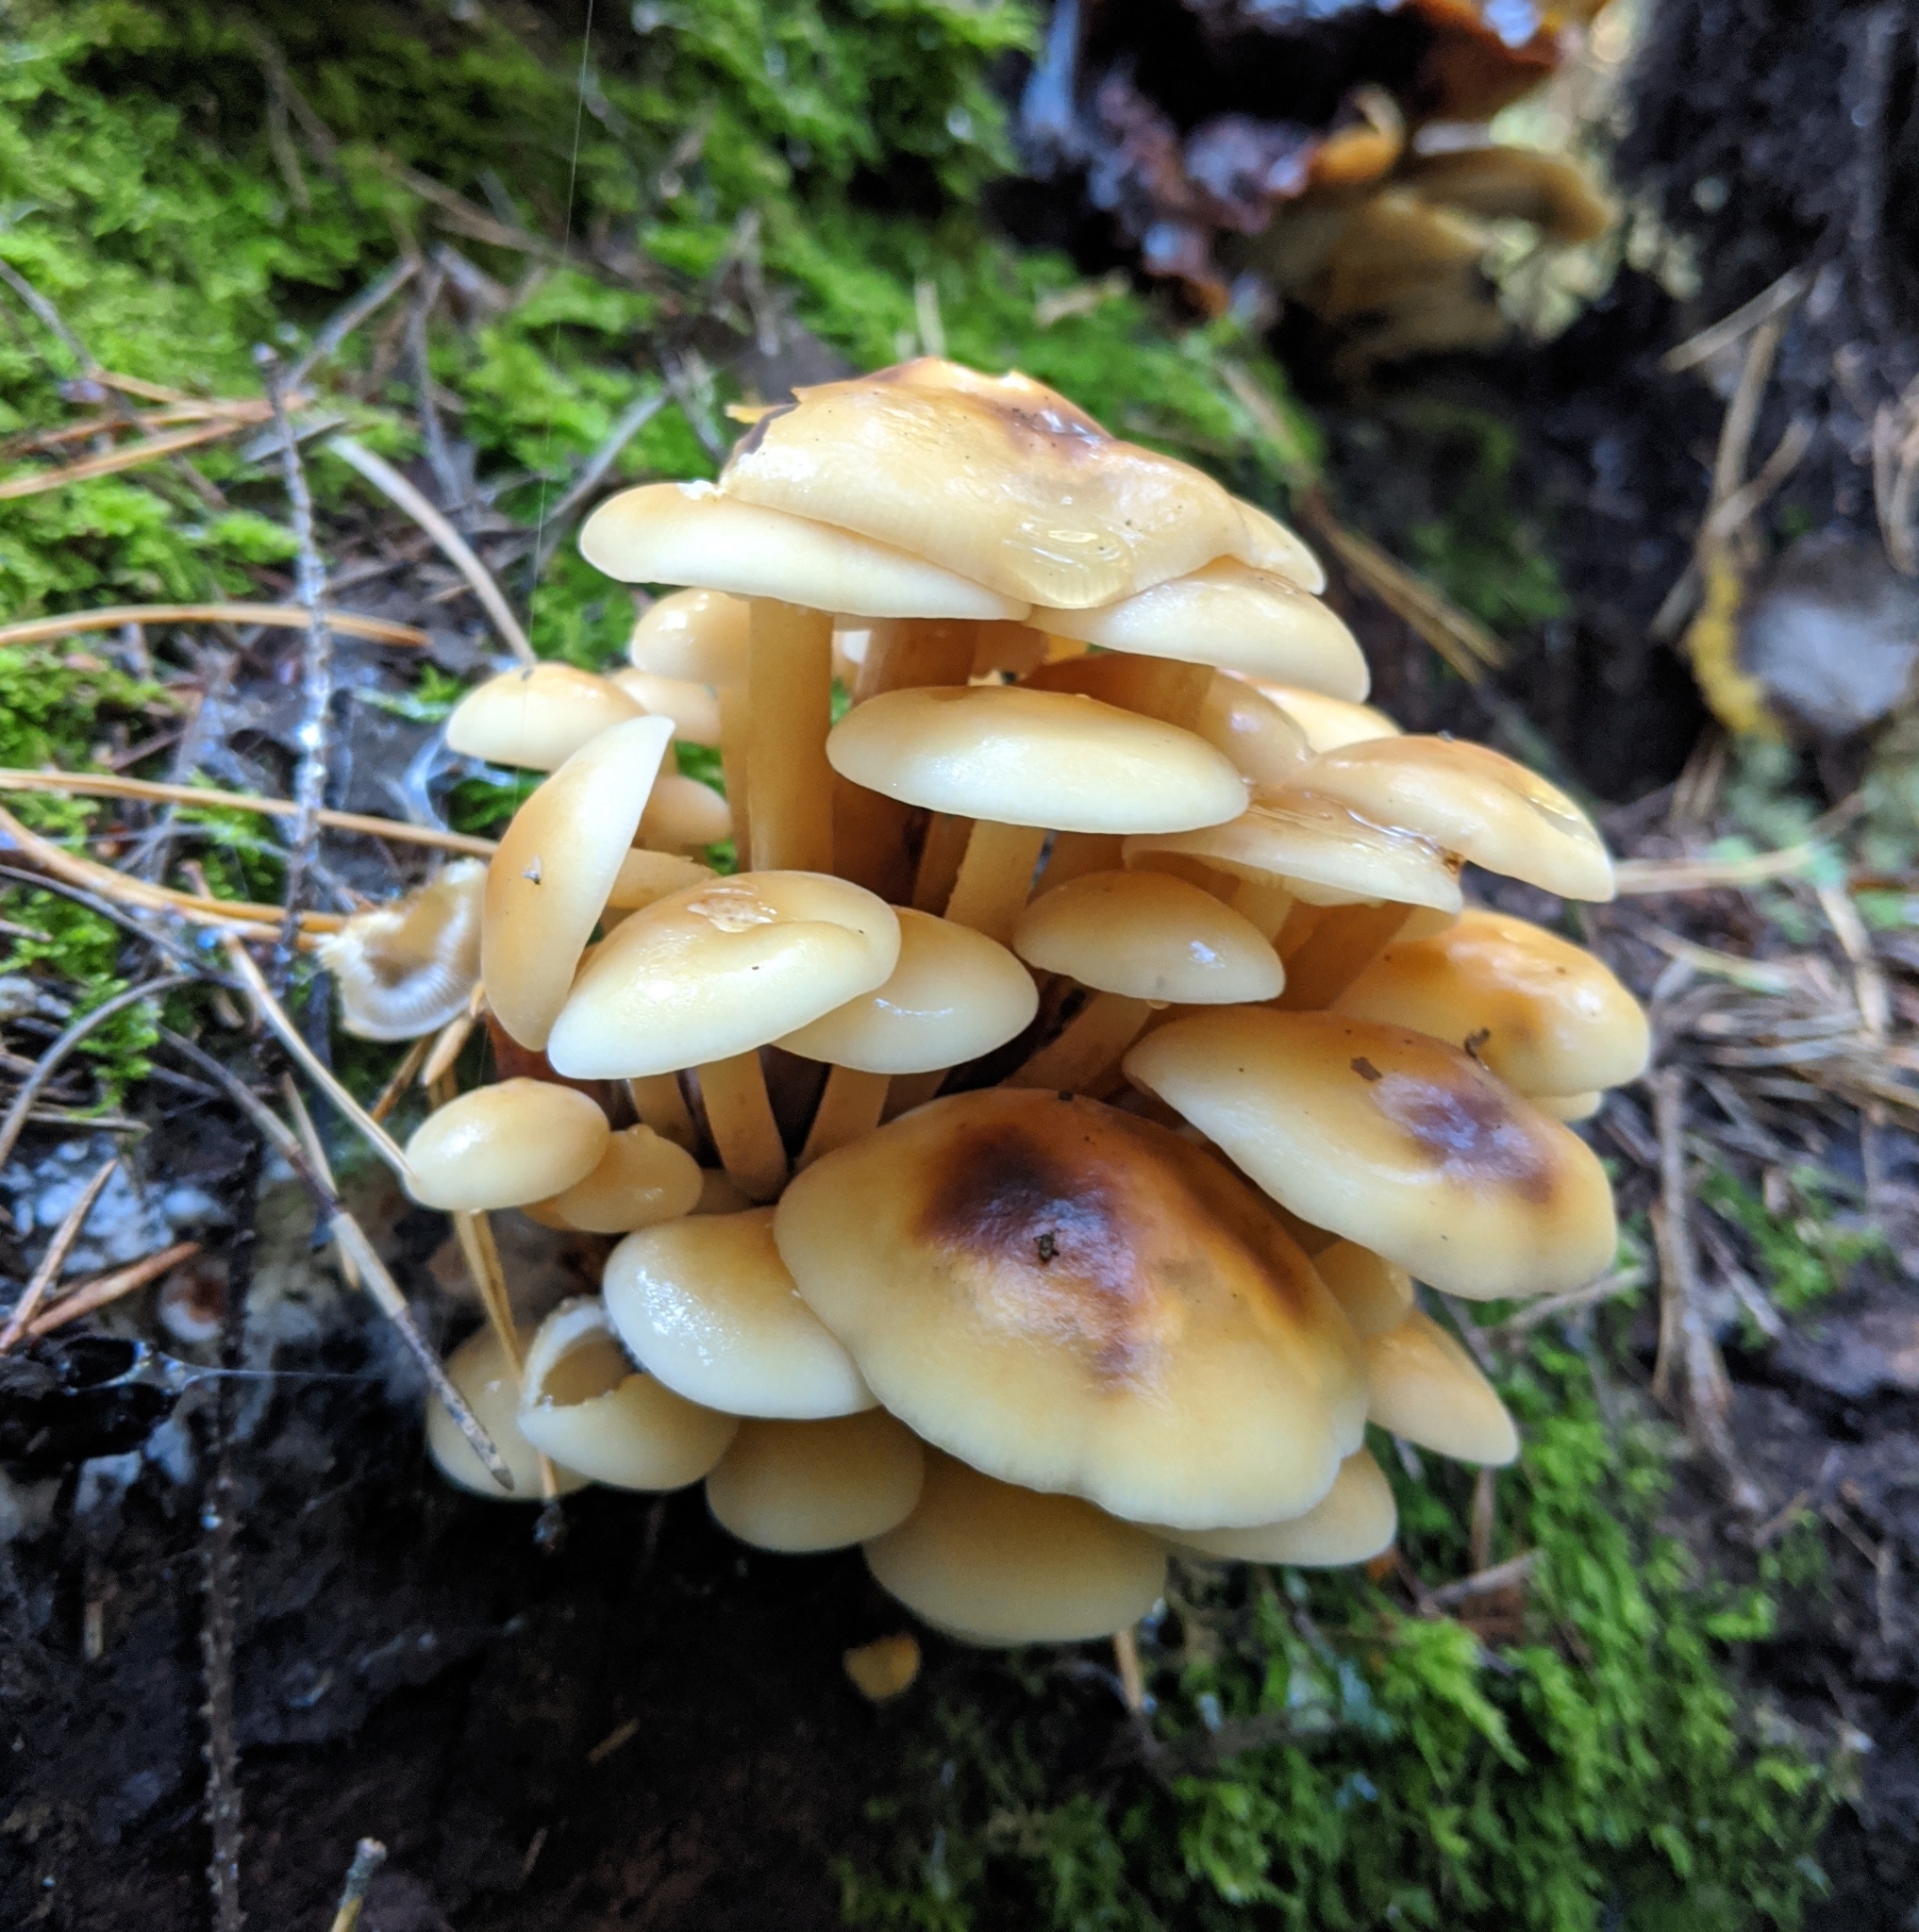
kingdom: Fungi
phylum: Basidiomycota
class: Agaricomycetes
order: Agaricales
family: Physalacriaceae
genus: Flammulina
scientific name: Flammulina
